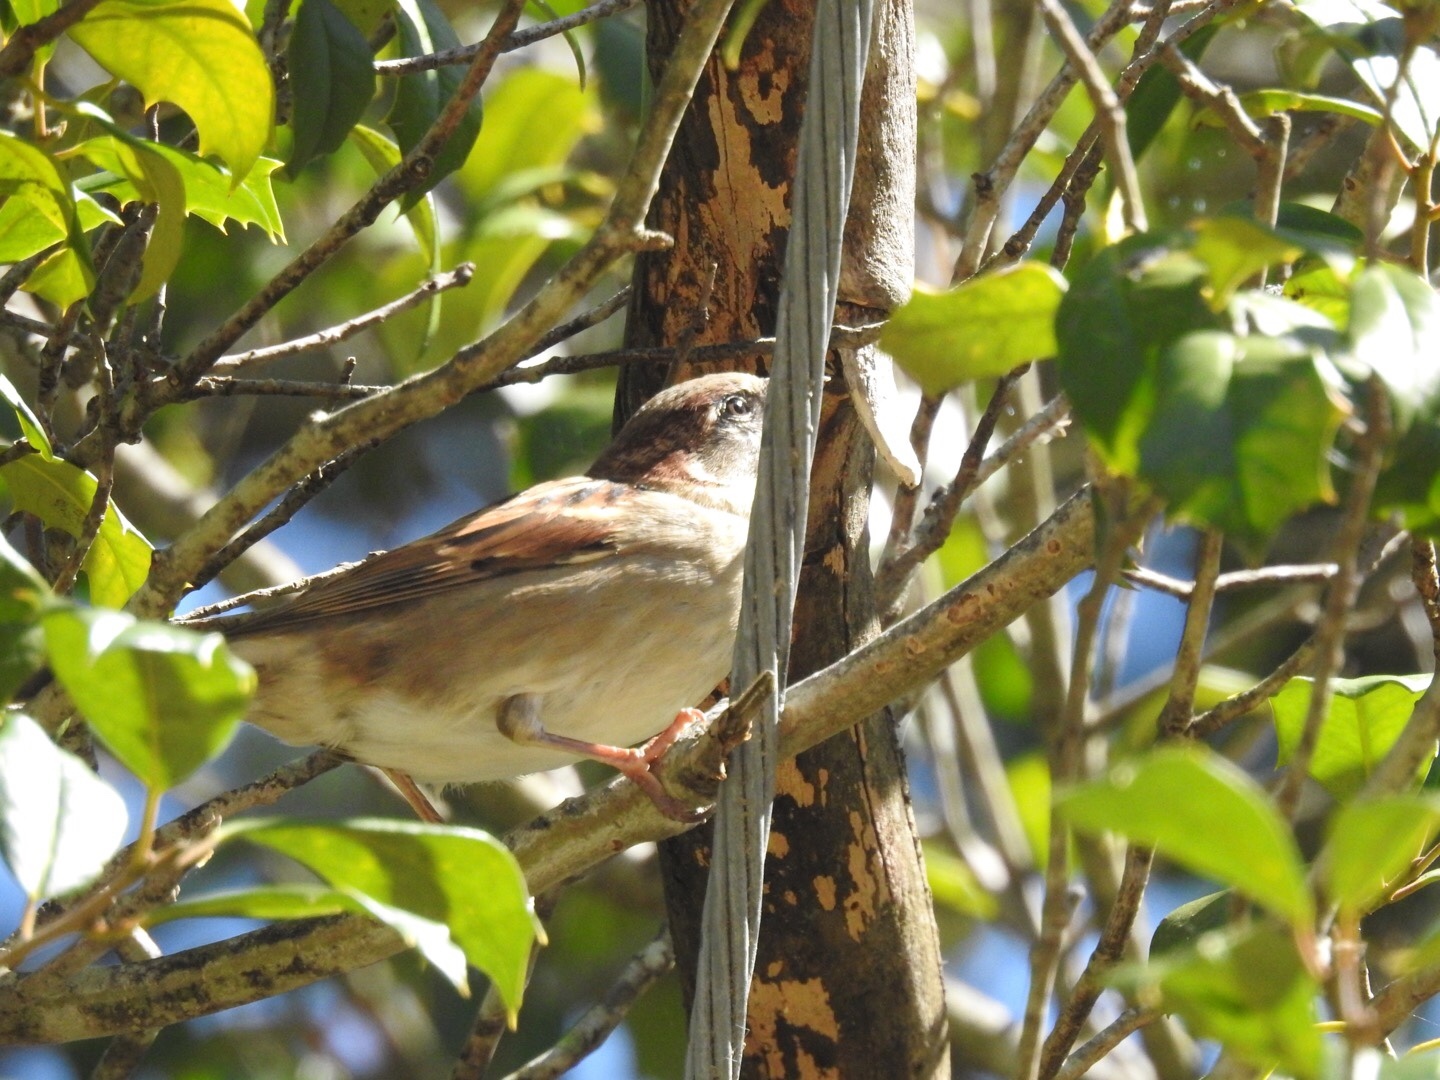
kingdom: Animalia
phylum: Chordata
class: Aves
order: Passeriformes
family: Passeridae
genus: Passer
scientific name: Passer domesticus
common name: House sparrow
